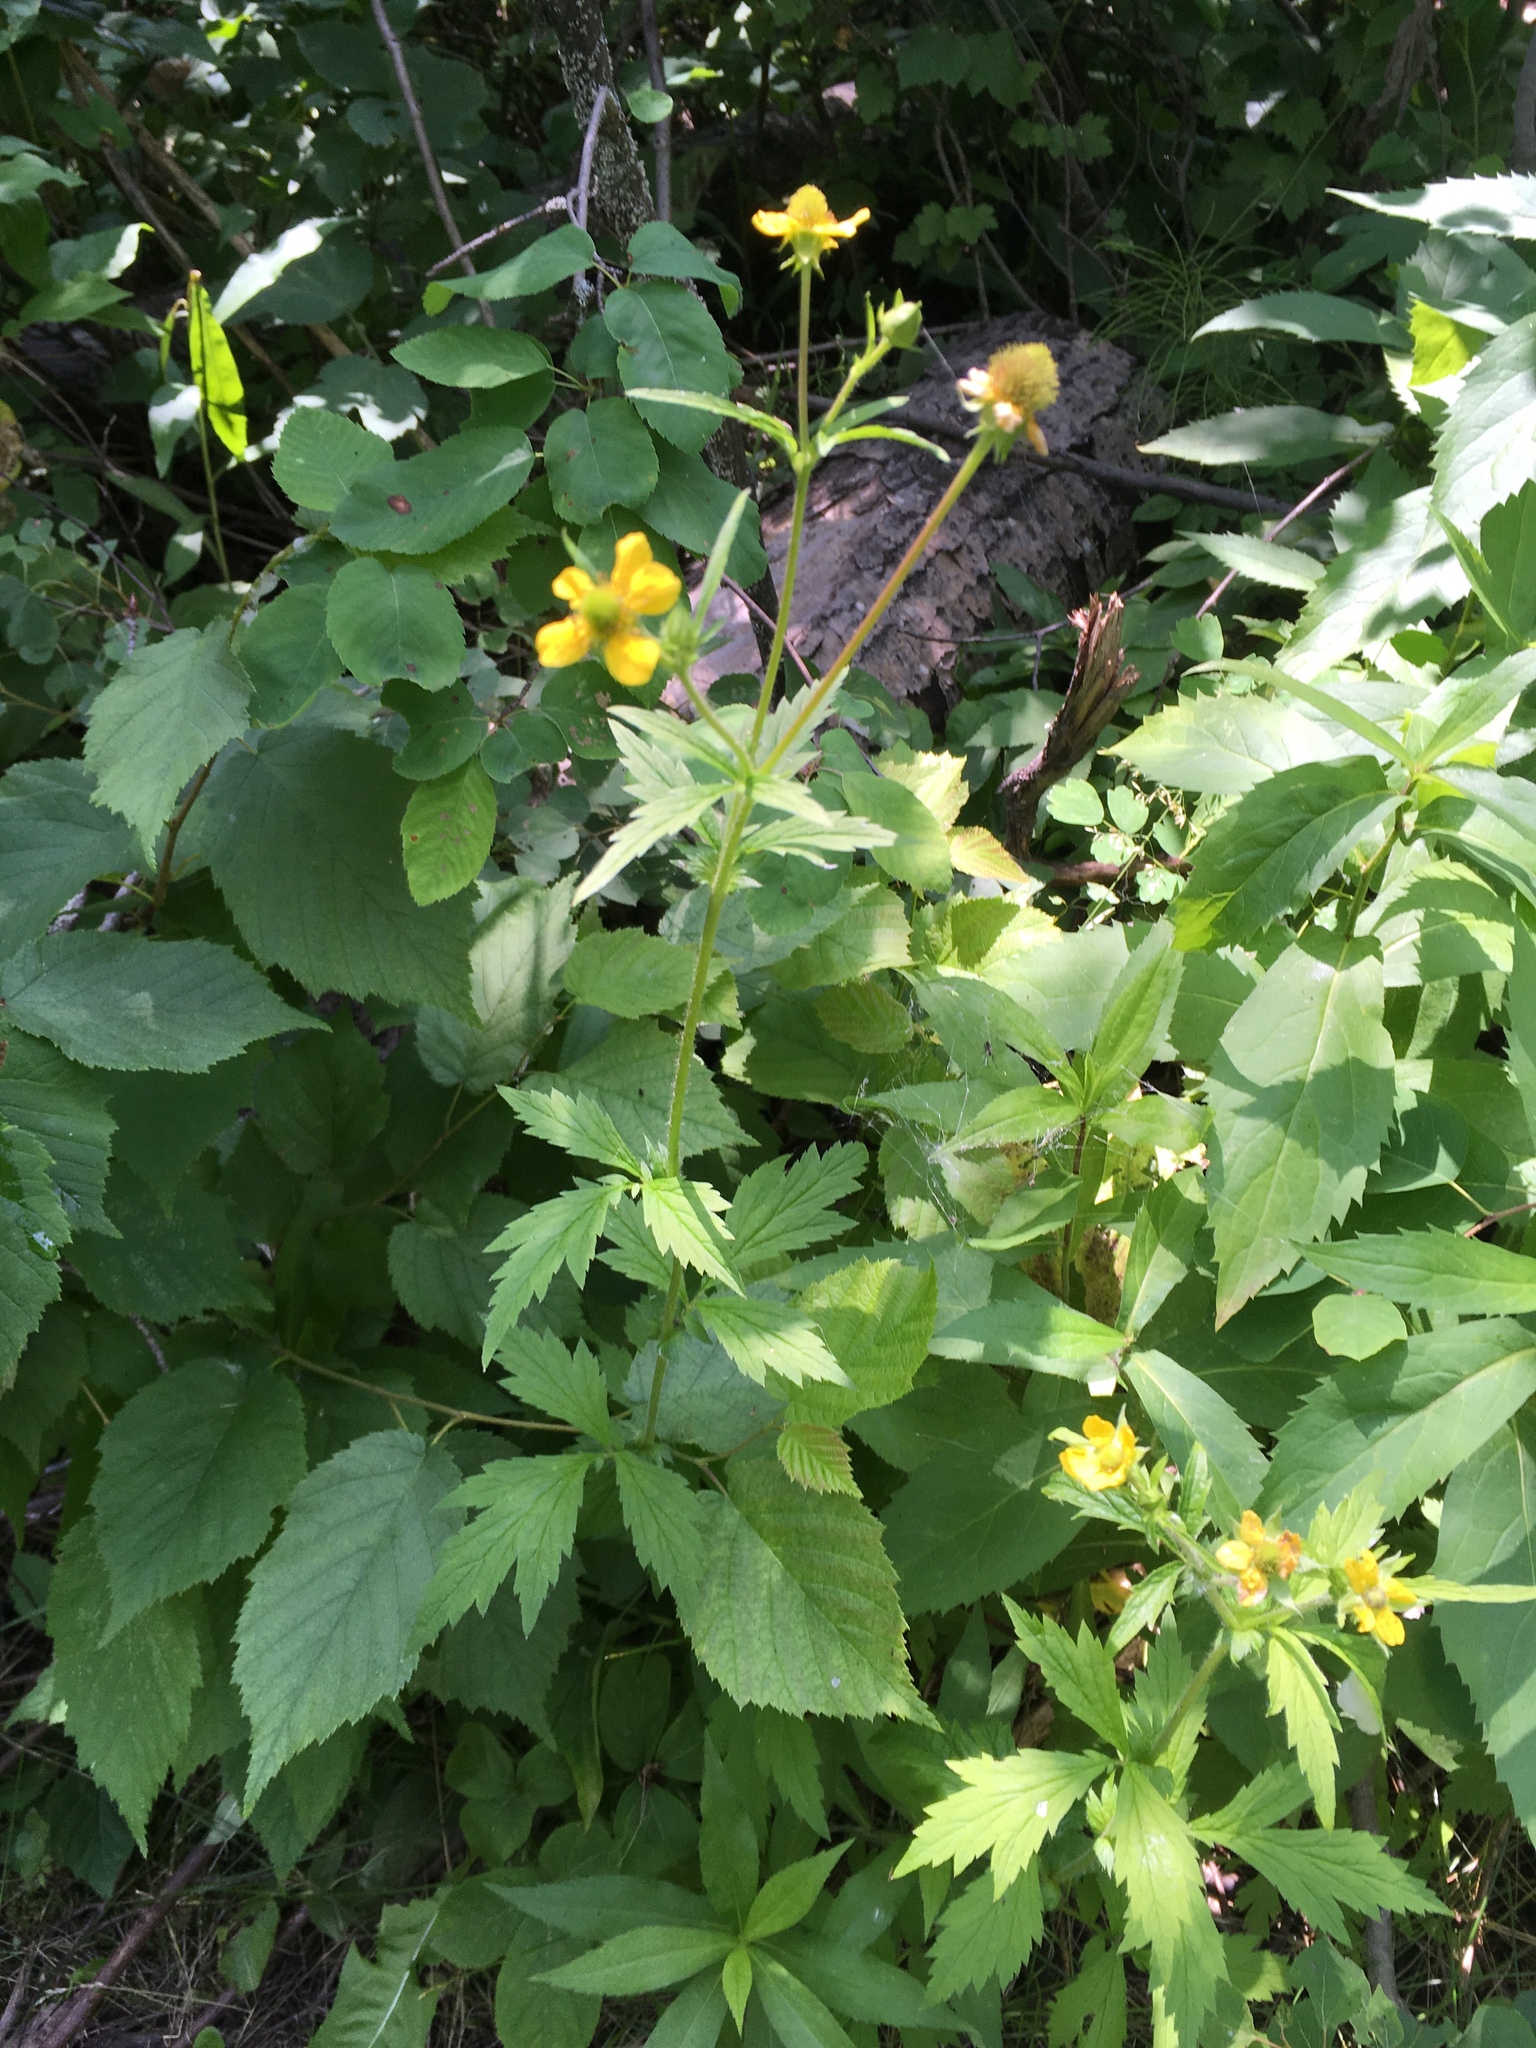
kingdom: Plantae
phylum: Tracheophyta
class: Magnoliopsida
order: Rosales
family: Rosaceae
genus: Geum
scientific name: Geum aleppicum
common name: Yellow avens
